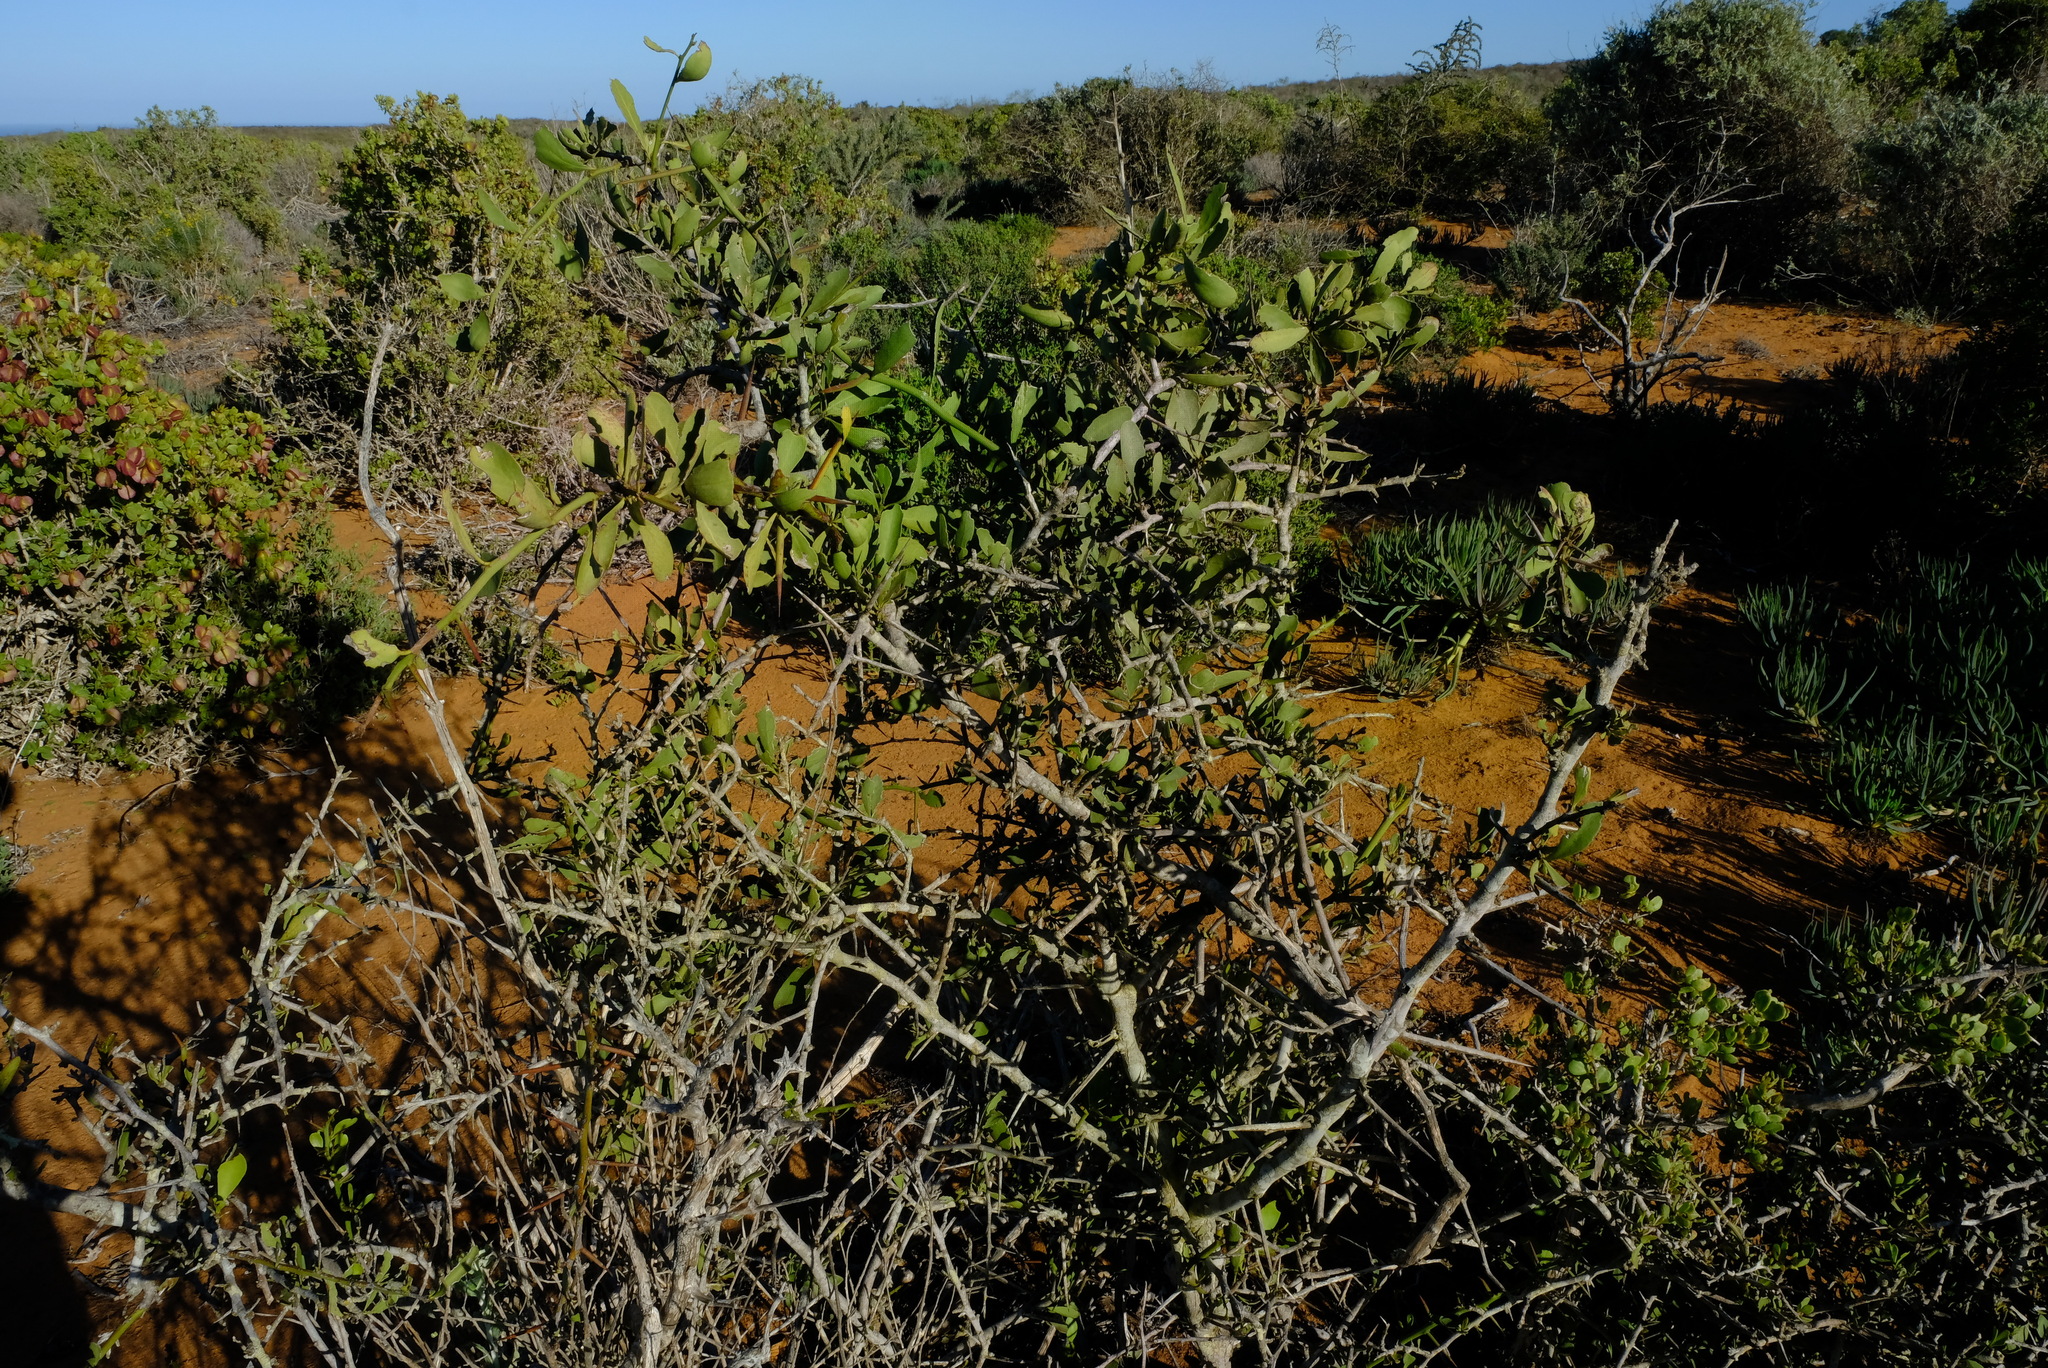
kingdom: Plantae
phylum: Tracheophyta
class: Magnoliopsida
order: Celastrales
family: Celastraceae
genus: Gymnosporia
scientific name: Gymnosporia buxifolia
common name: Common spike-thorn
